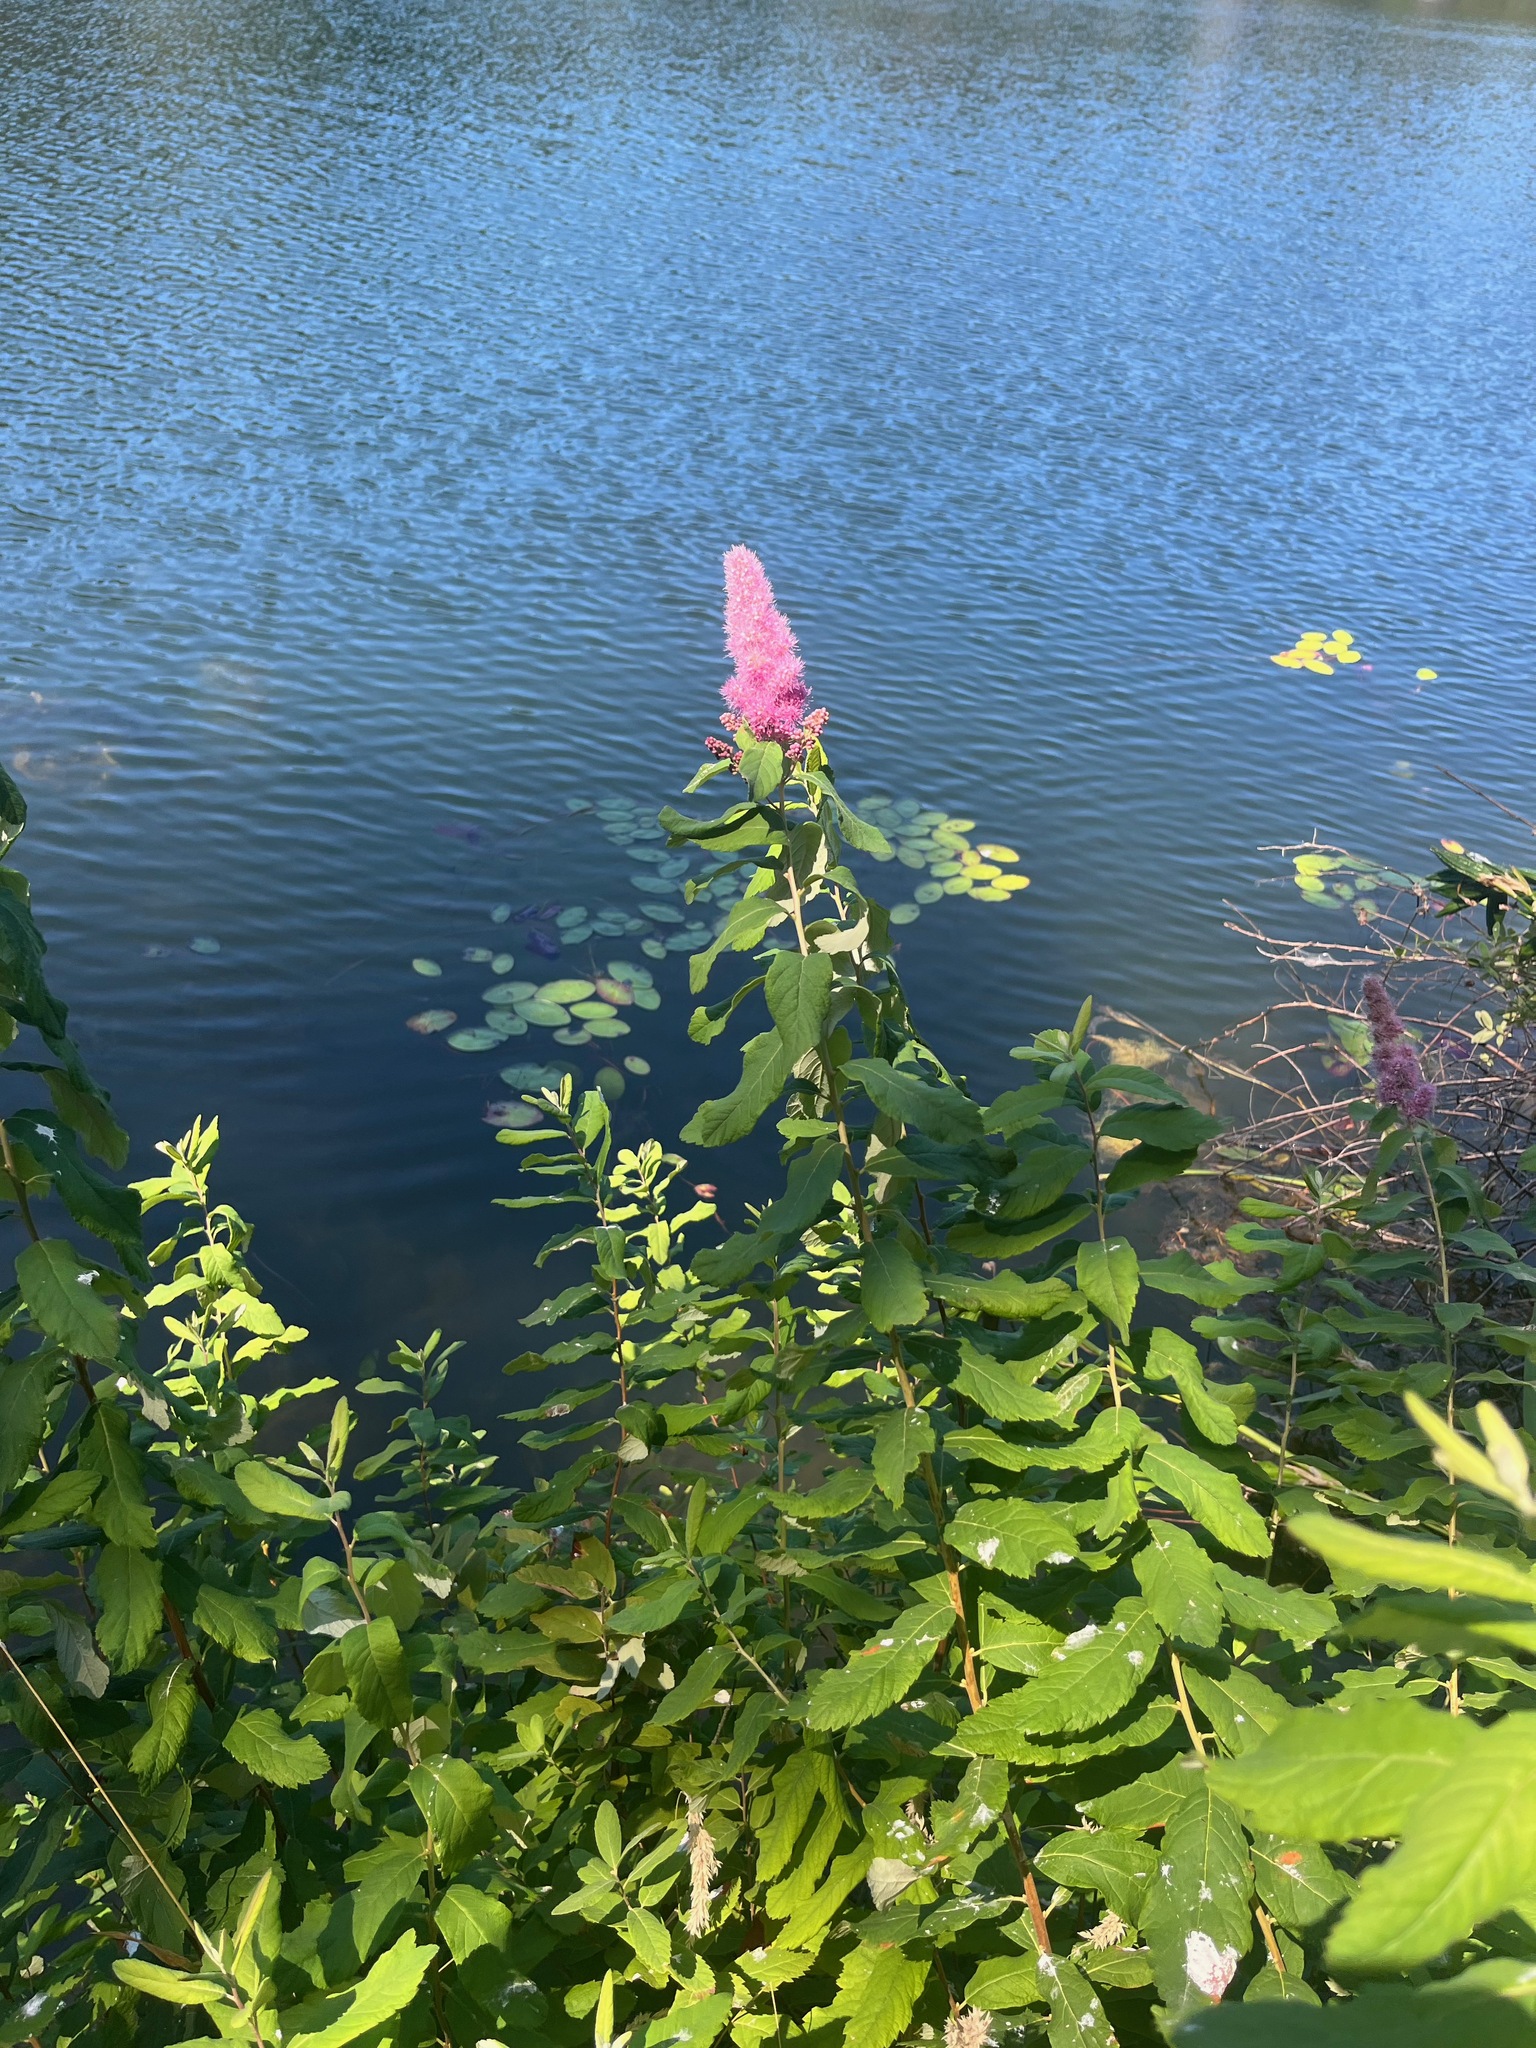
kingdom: Plantae
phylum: Tracheophyta
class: Magnoliopsida
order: Rosales
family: Rosaceae
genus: Spiraea
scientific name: Spiraea douglasii
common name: Steeplebush
